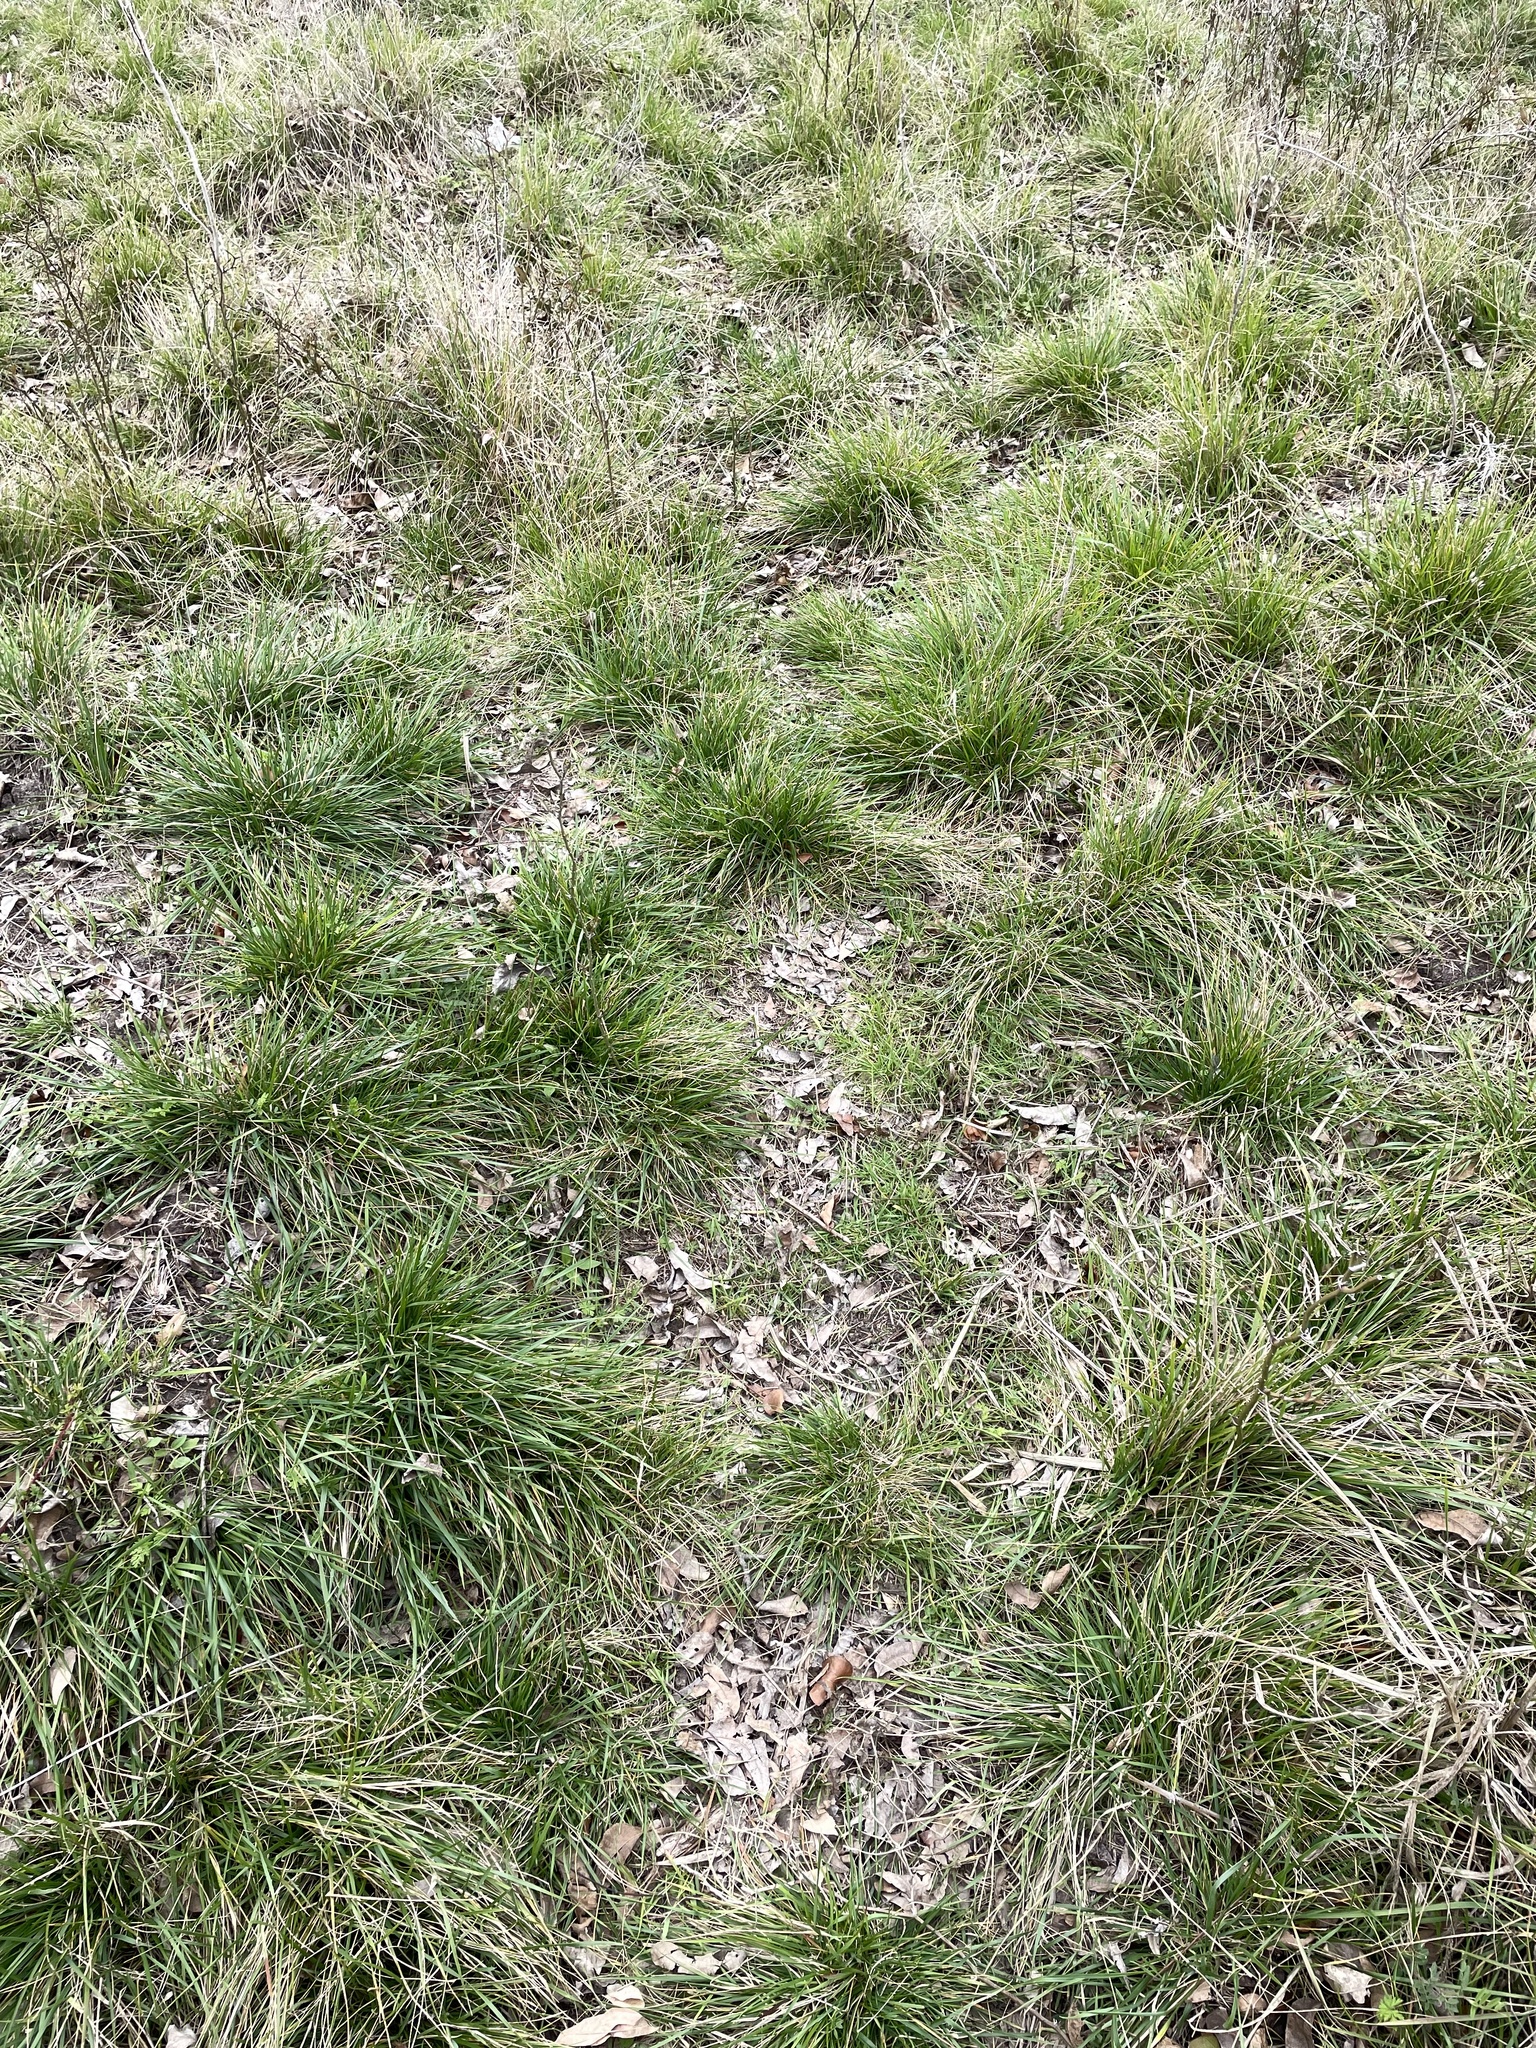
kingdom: Plantae
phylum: Tracheophyta
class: Liliopsida
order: Poales
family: Poaceae
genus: Nassella
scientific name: Nassella leucotricha
